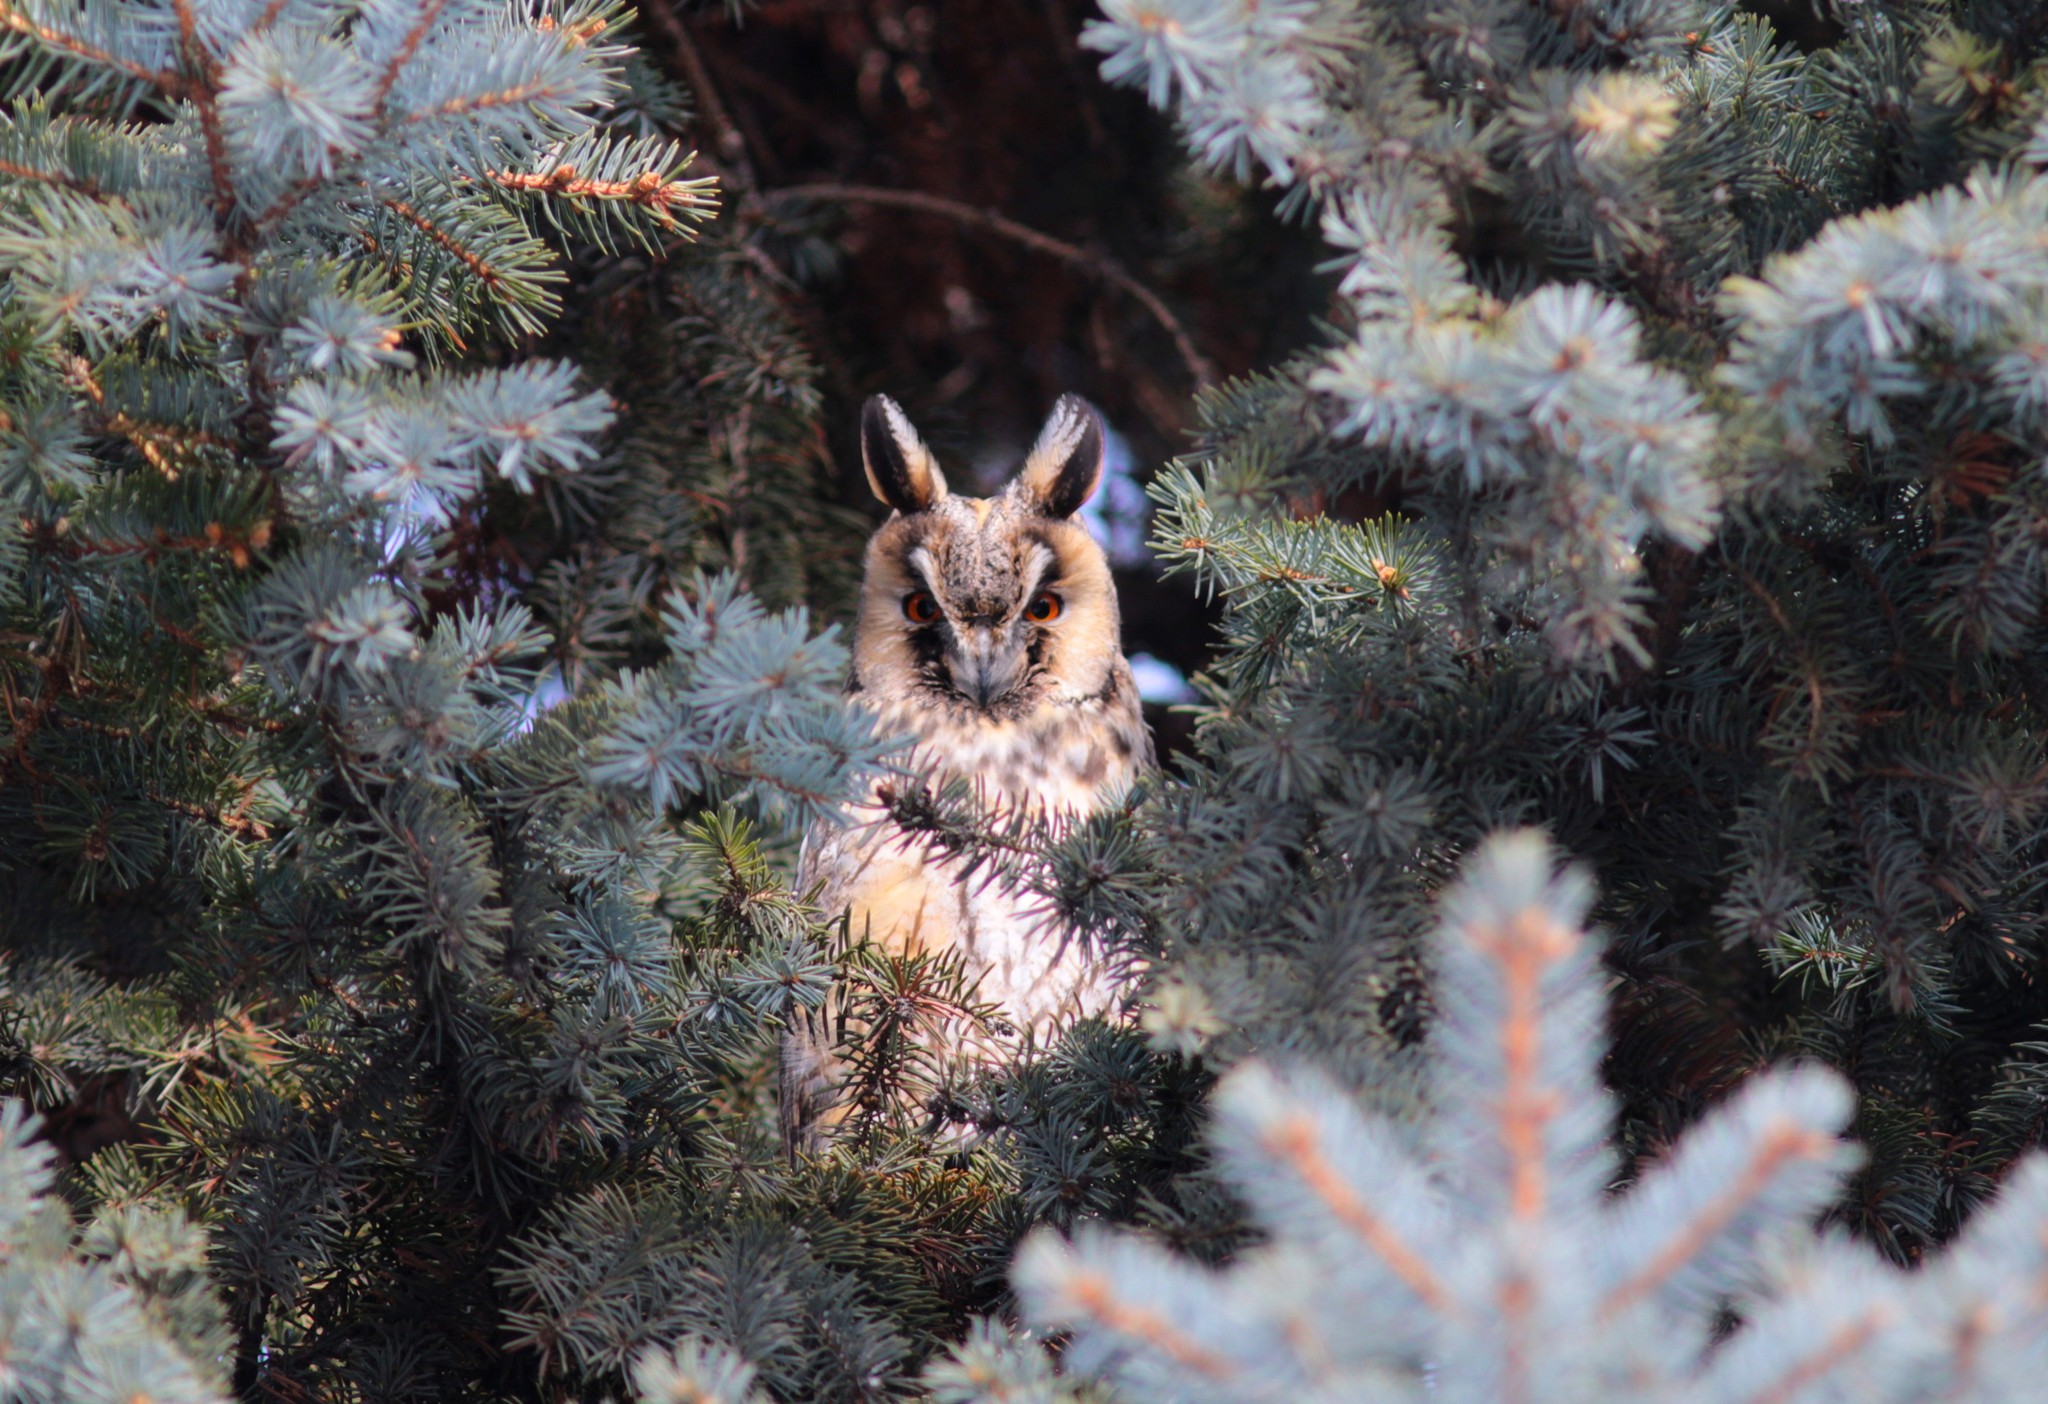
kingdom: Animalia
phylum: Chordata
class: Aves
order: Strigiformes
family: Strigidae
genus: Asio
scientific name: Asio otus
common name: Long-eared owl
